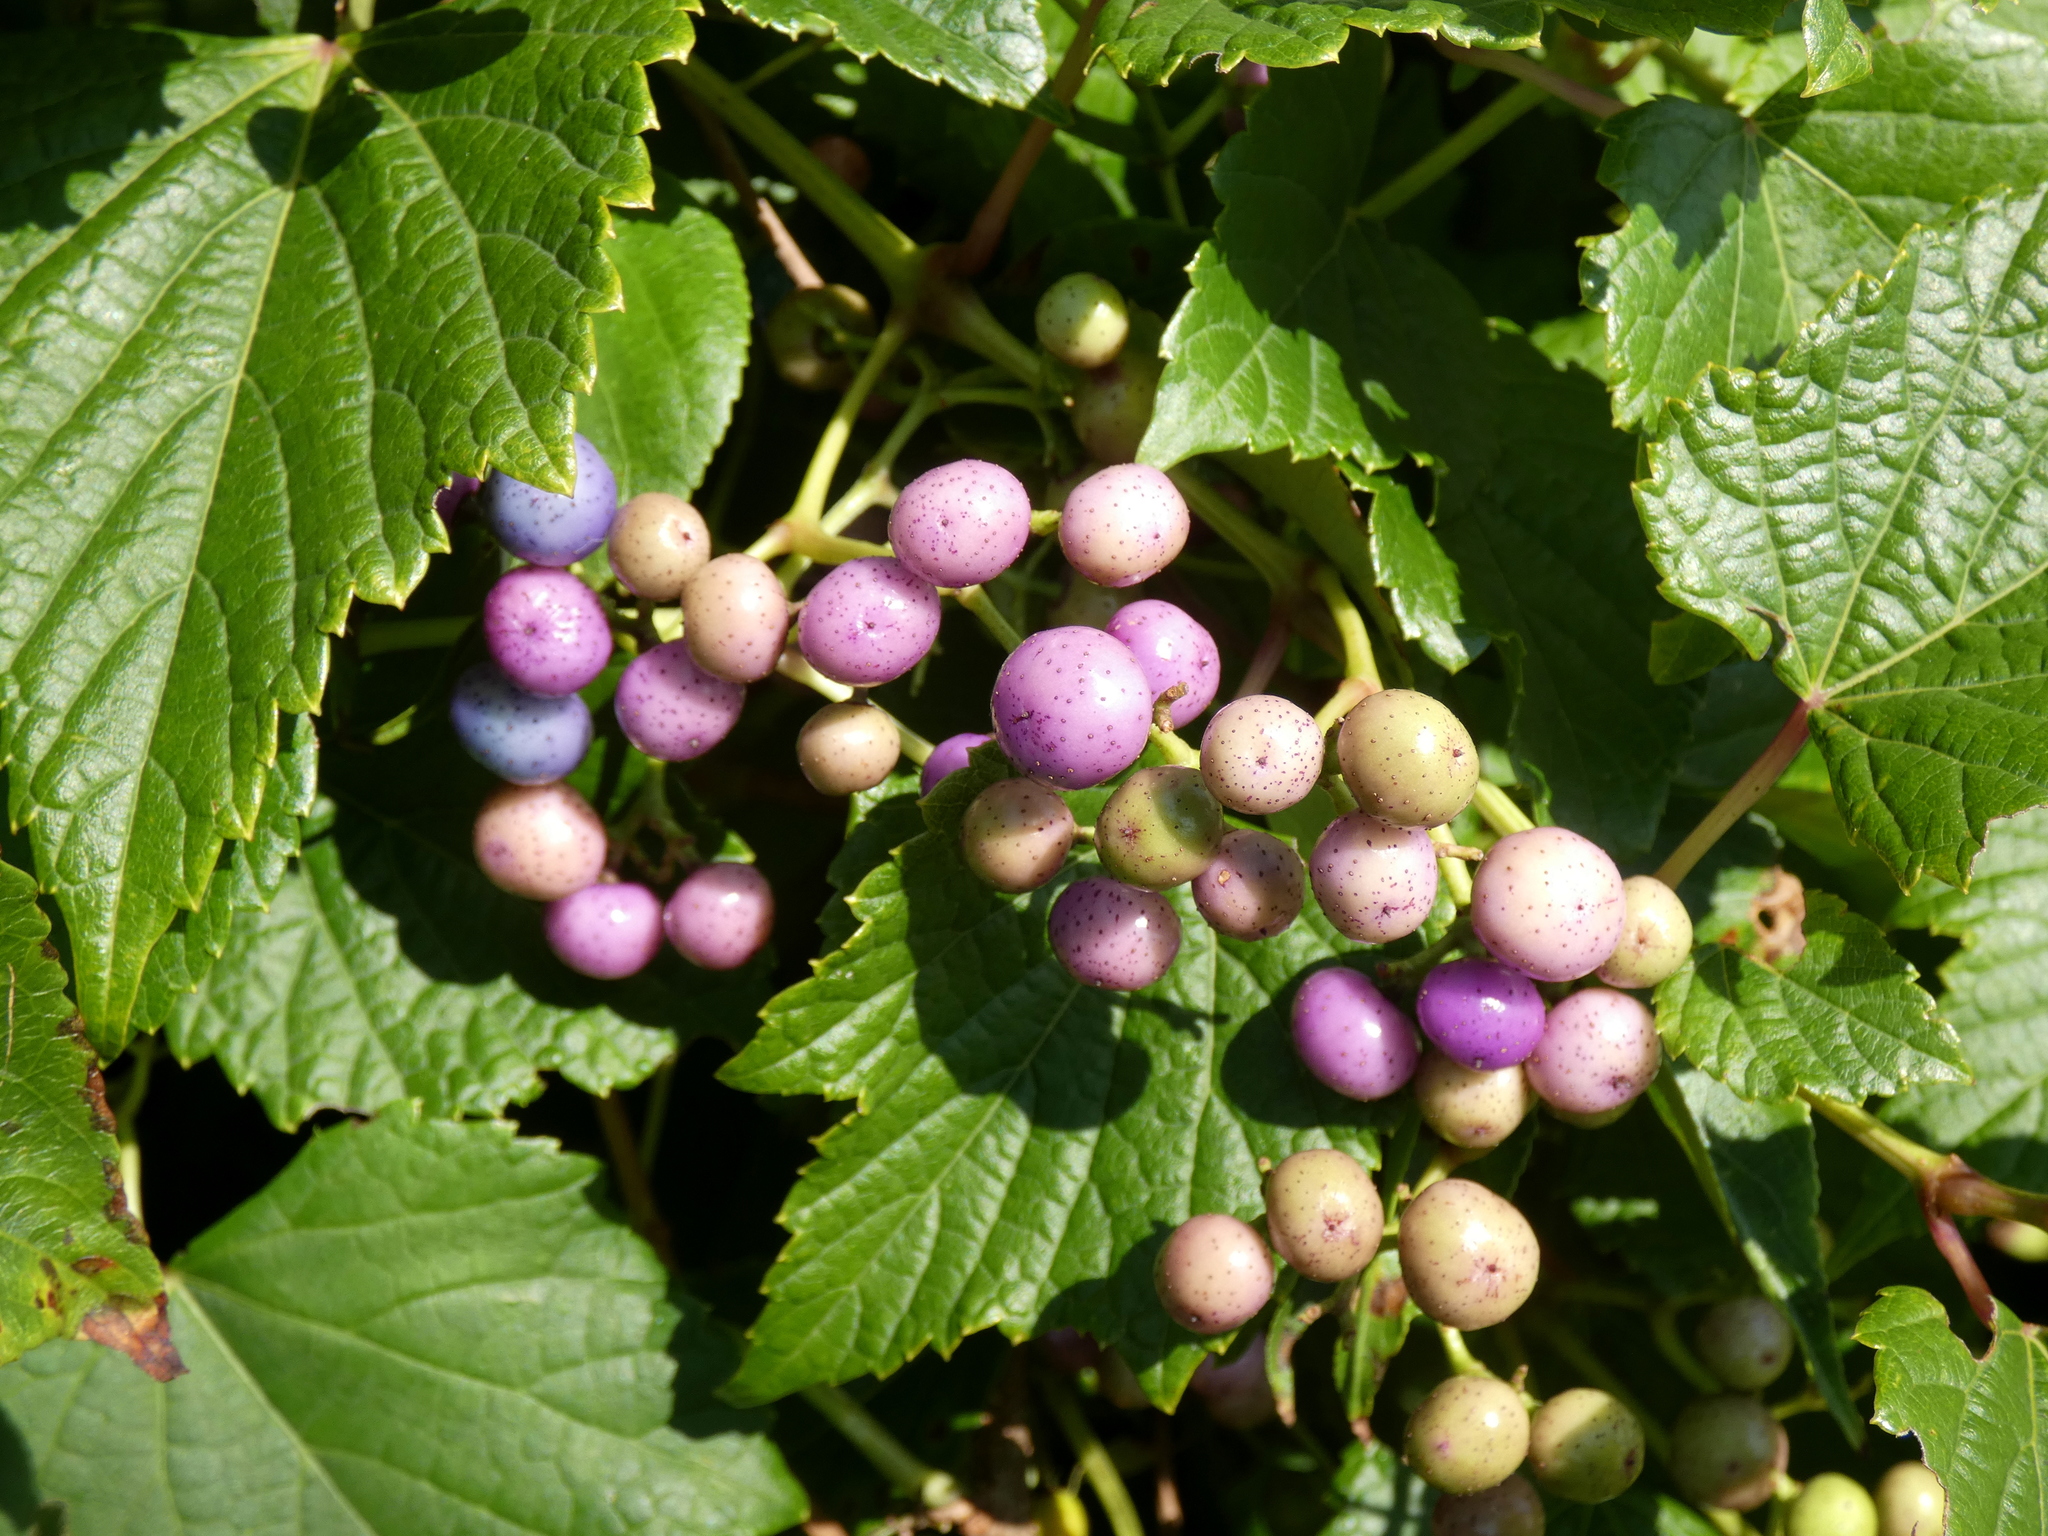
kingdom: Plantae
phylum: Tracheophyta
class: Magnoliopsida
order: Vitales
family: Vitaceae
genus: Ampelopsis
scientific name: Ampelopsis glandulosa
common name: Amur peppervine
